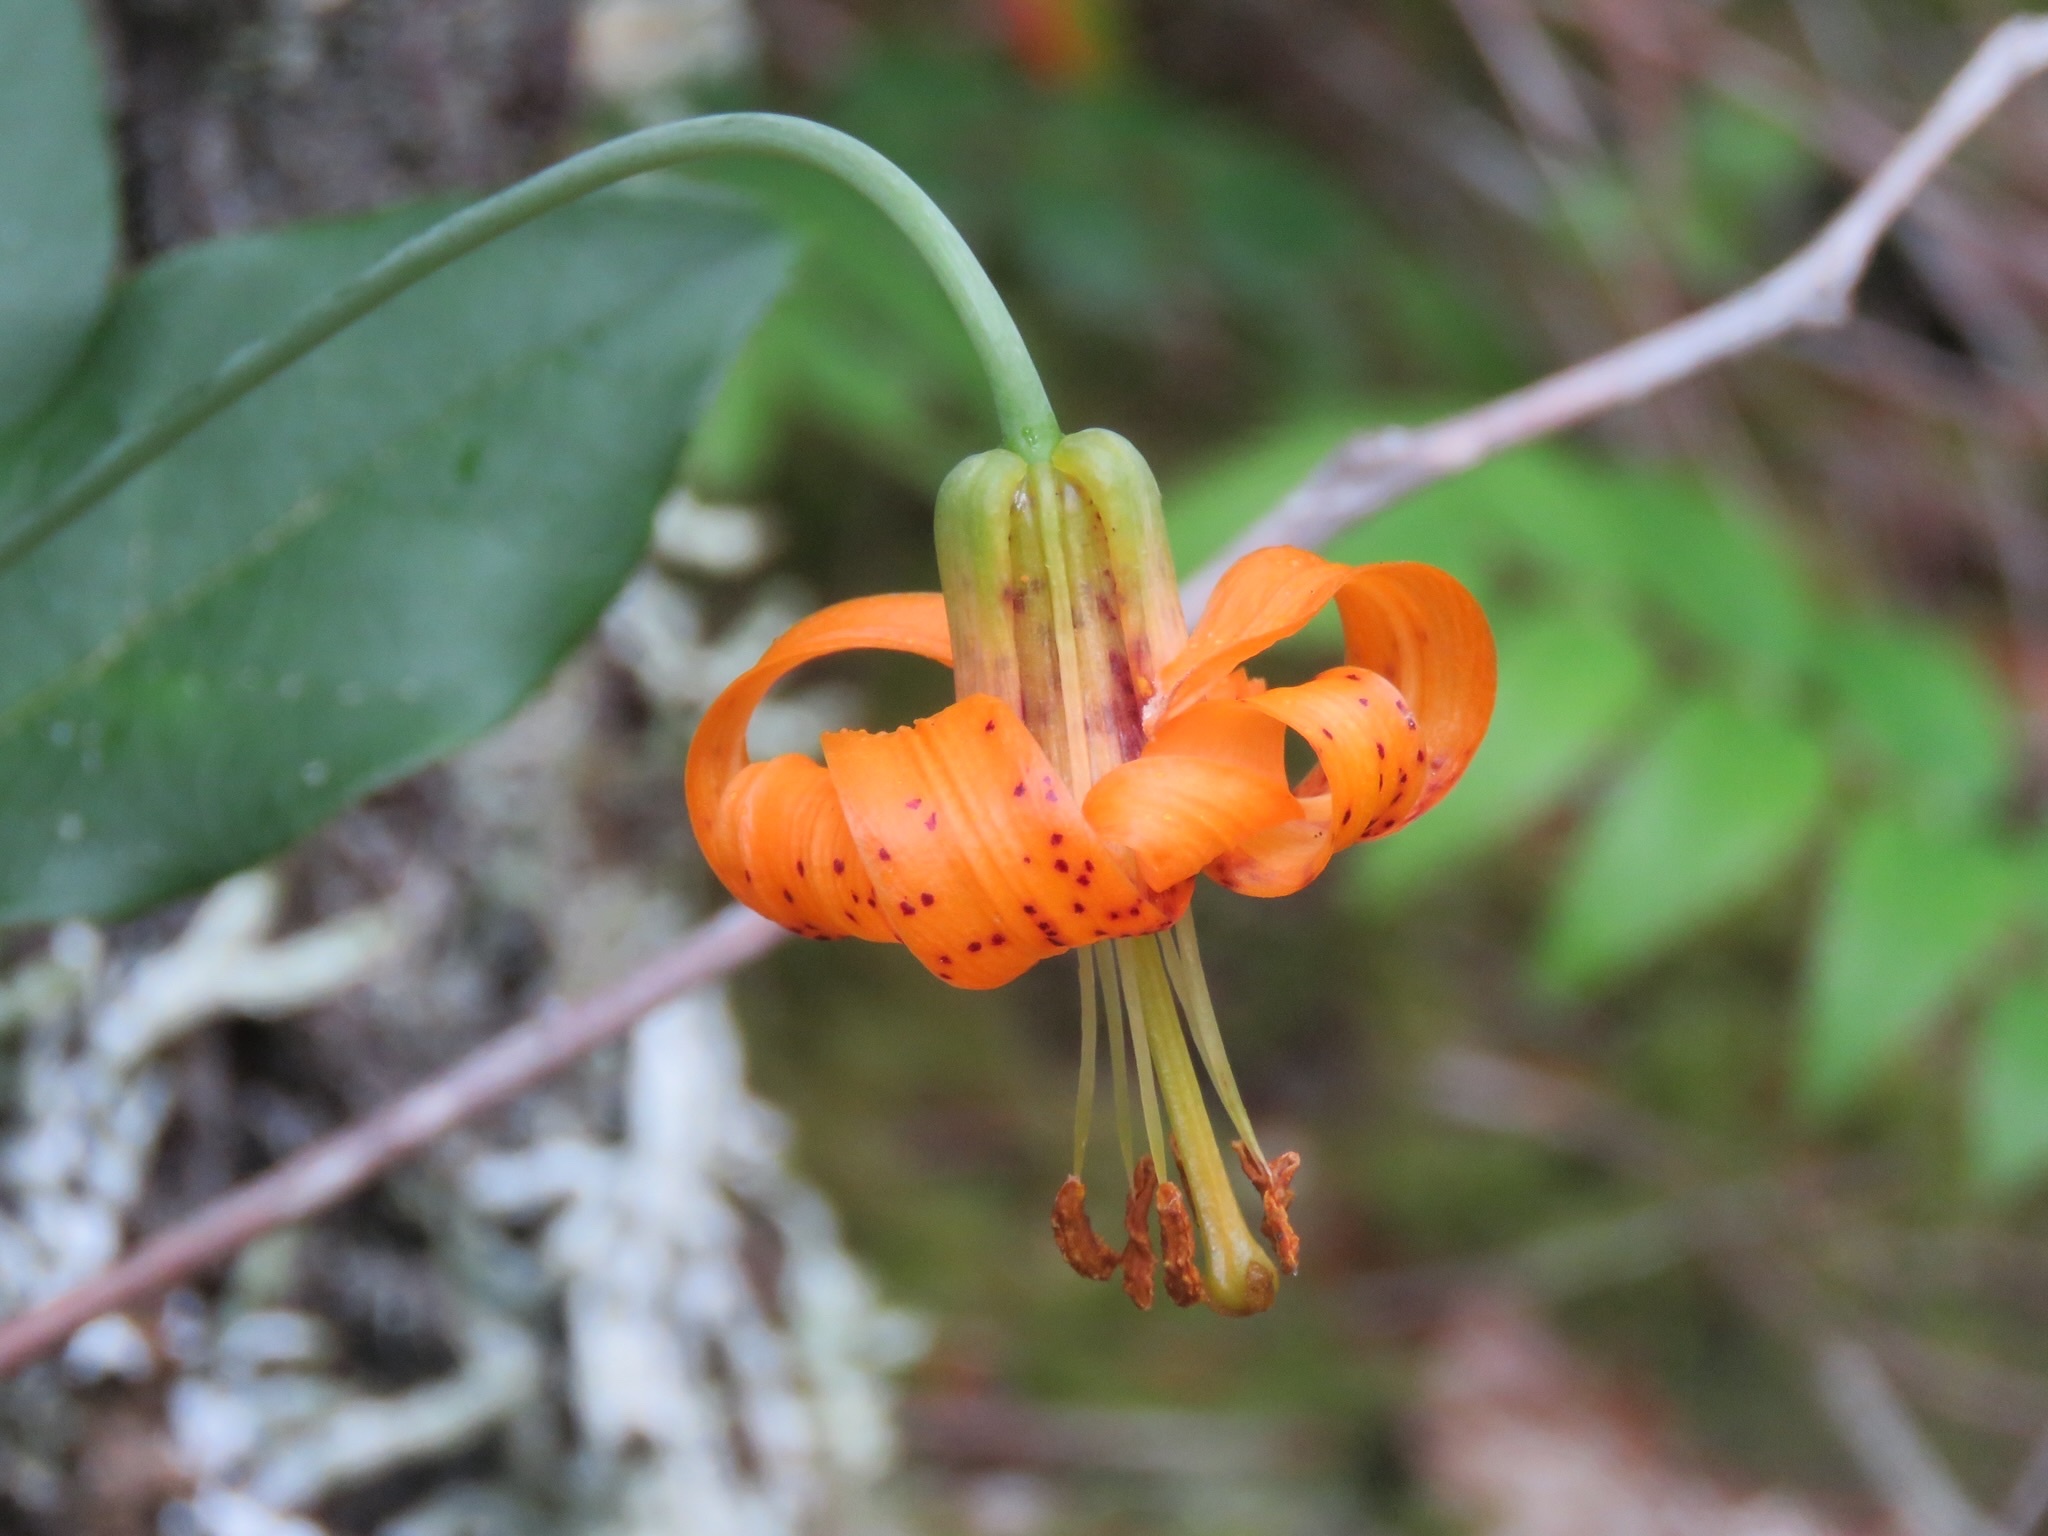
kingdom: Plantae
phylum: Tracheophyta
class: Liliopsida
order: Liliales
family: Liliaceae
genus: Lilium
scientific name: Lilium columbianum
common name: Columbia lily
